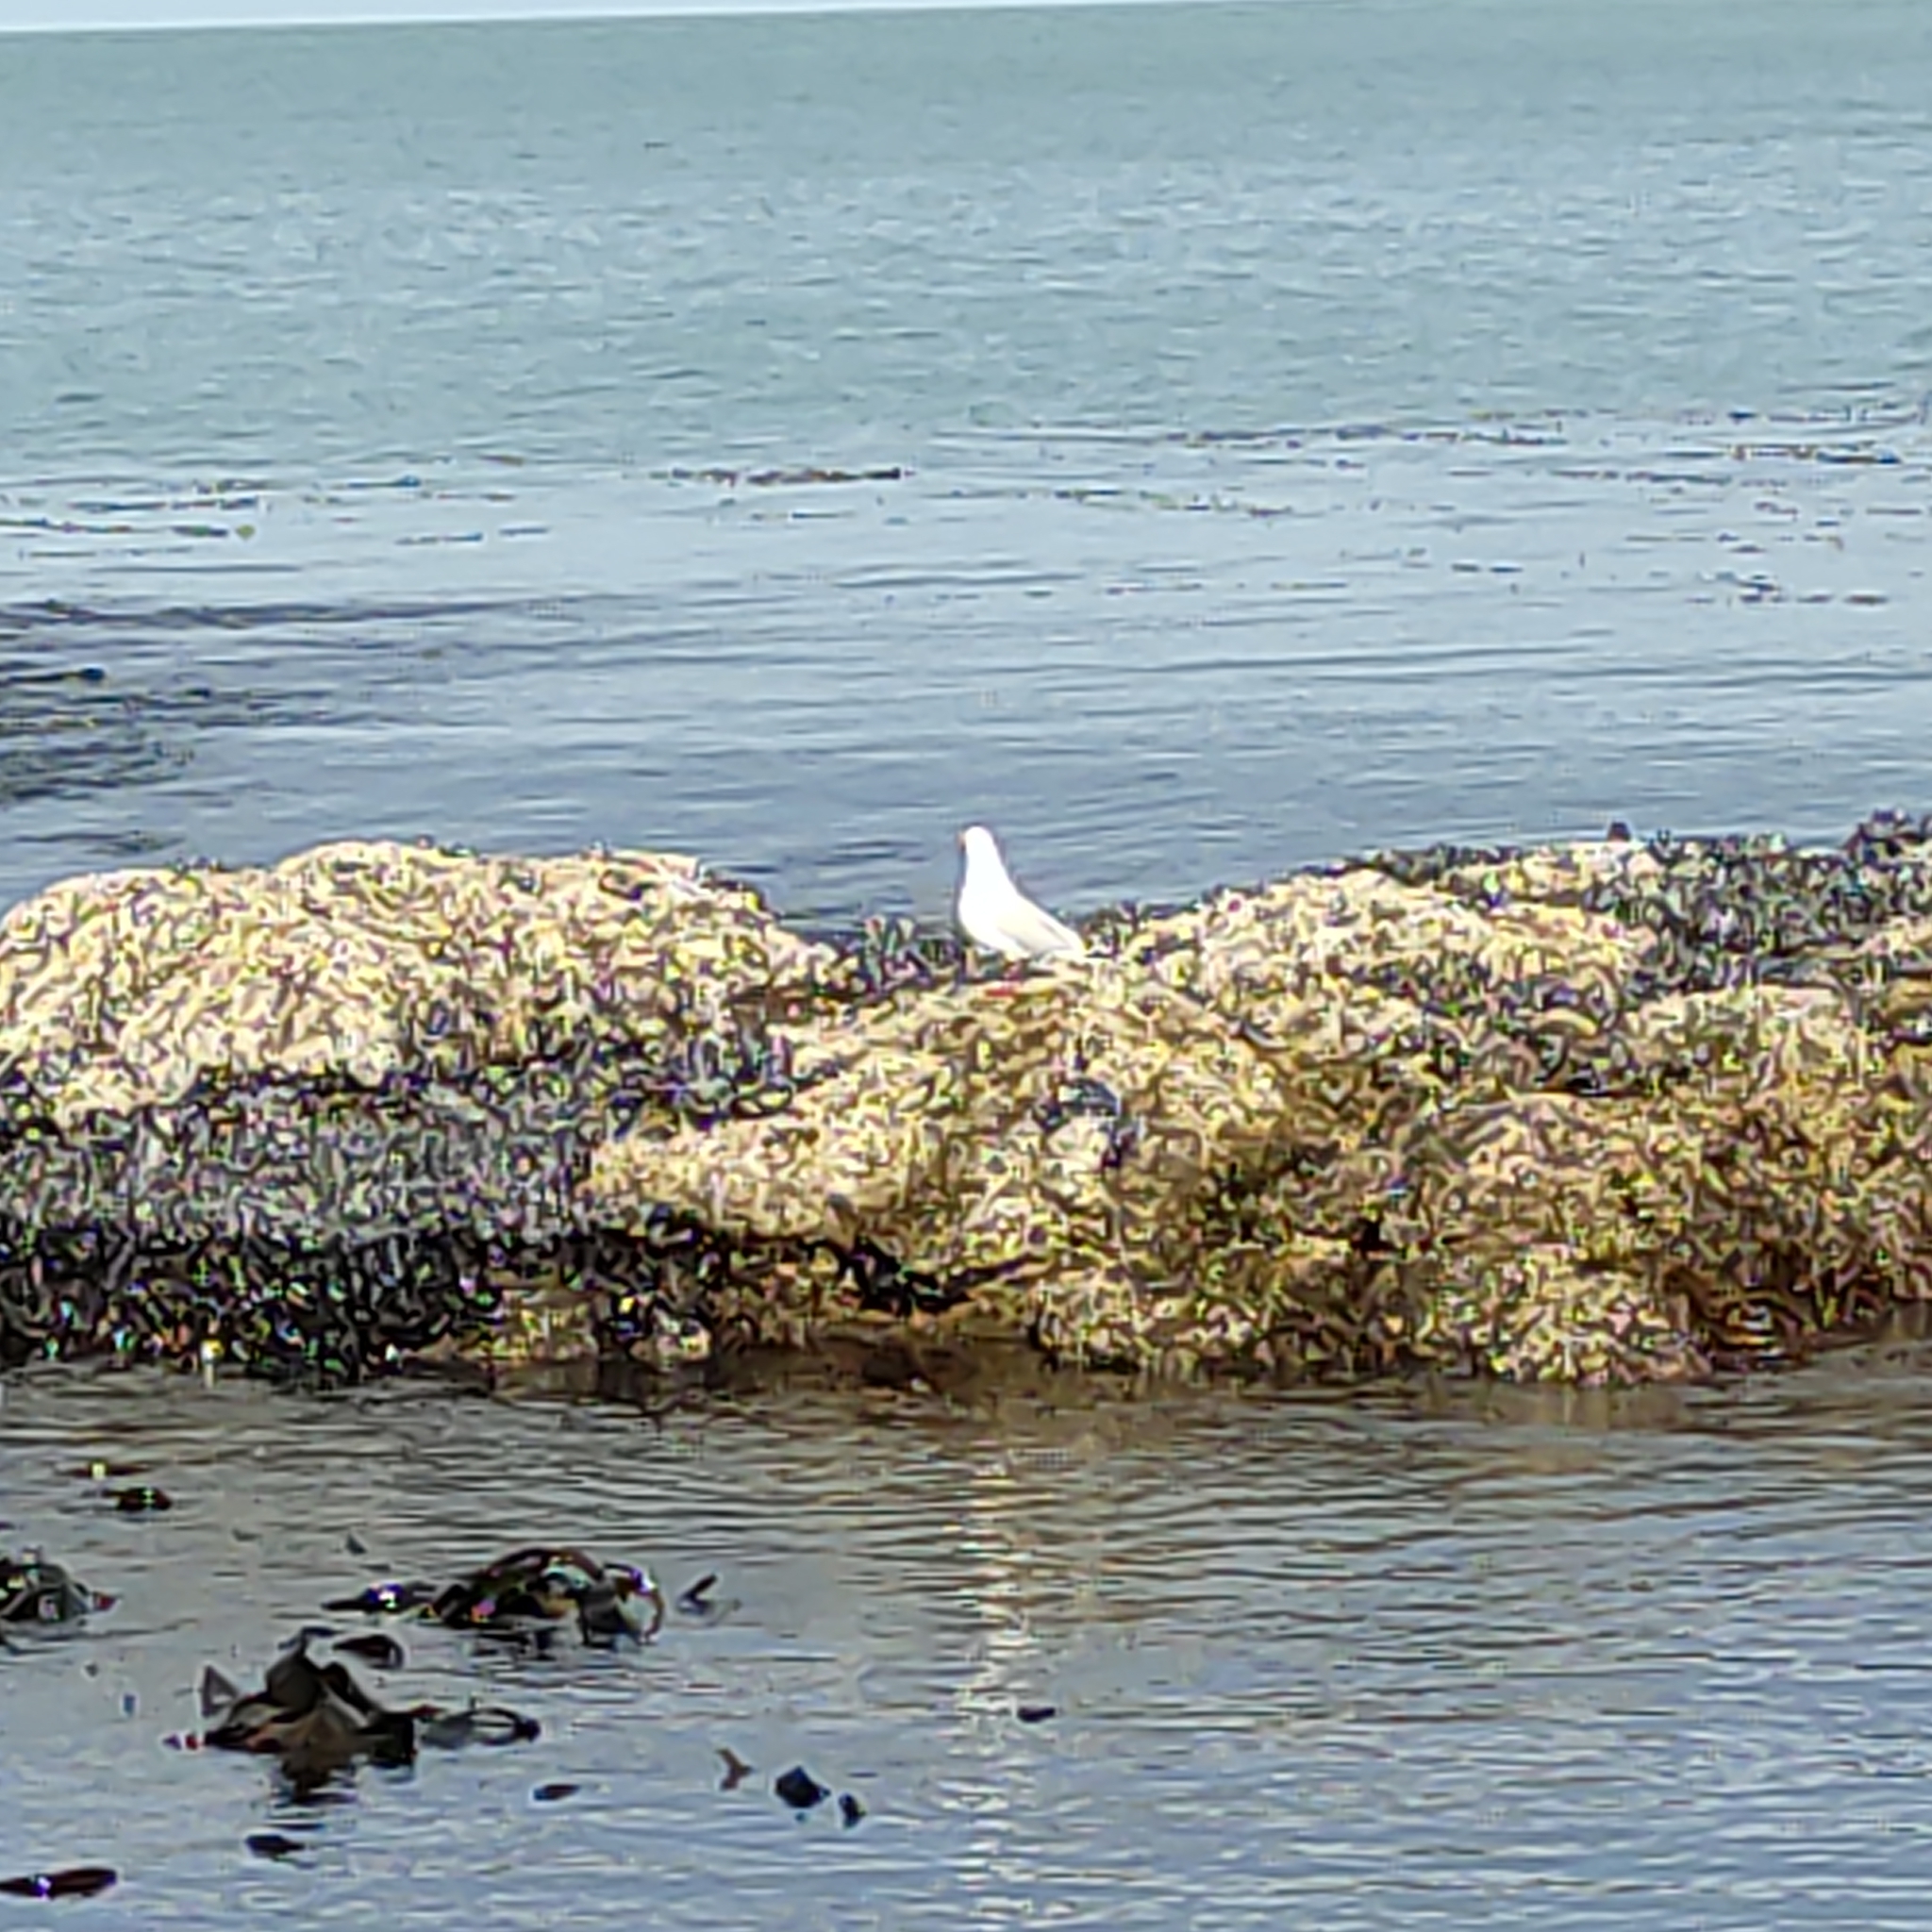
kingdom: Animalia
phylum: Chordata
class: Aves
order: Charadriiformes
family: Laridae
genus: Chroicocephalus
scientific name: Chroicocephalus novaehollandiae
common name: Silver gull
